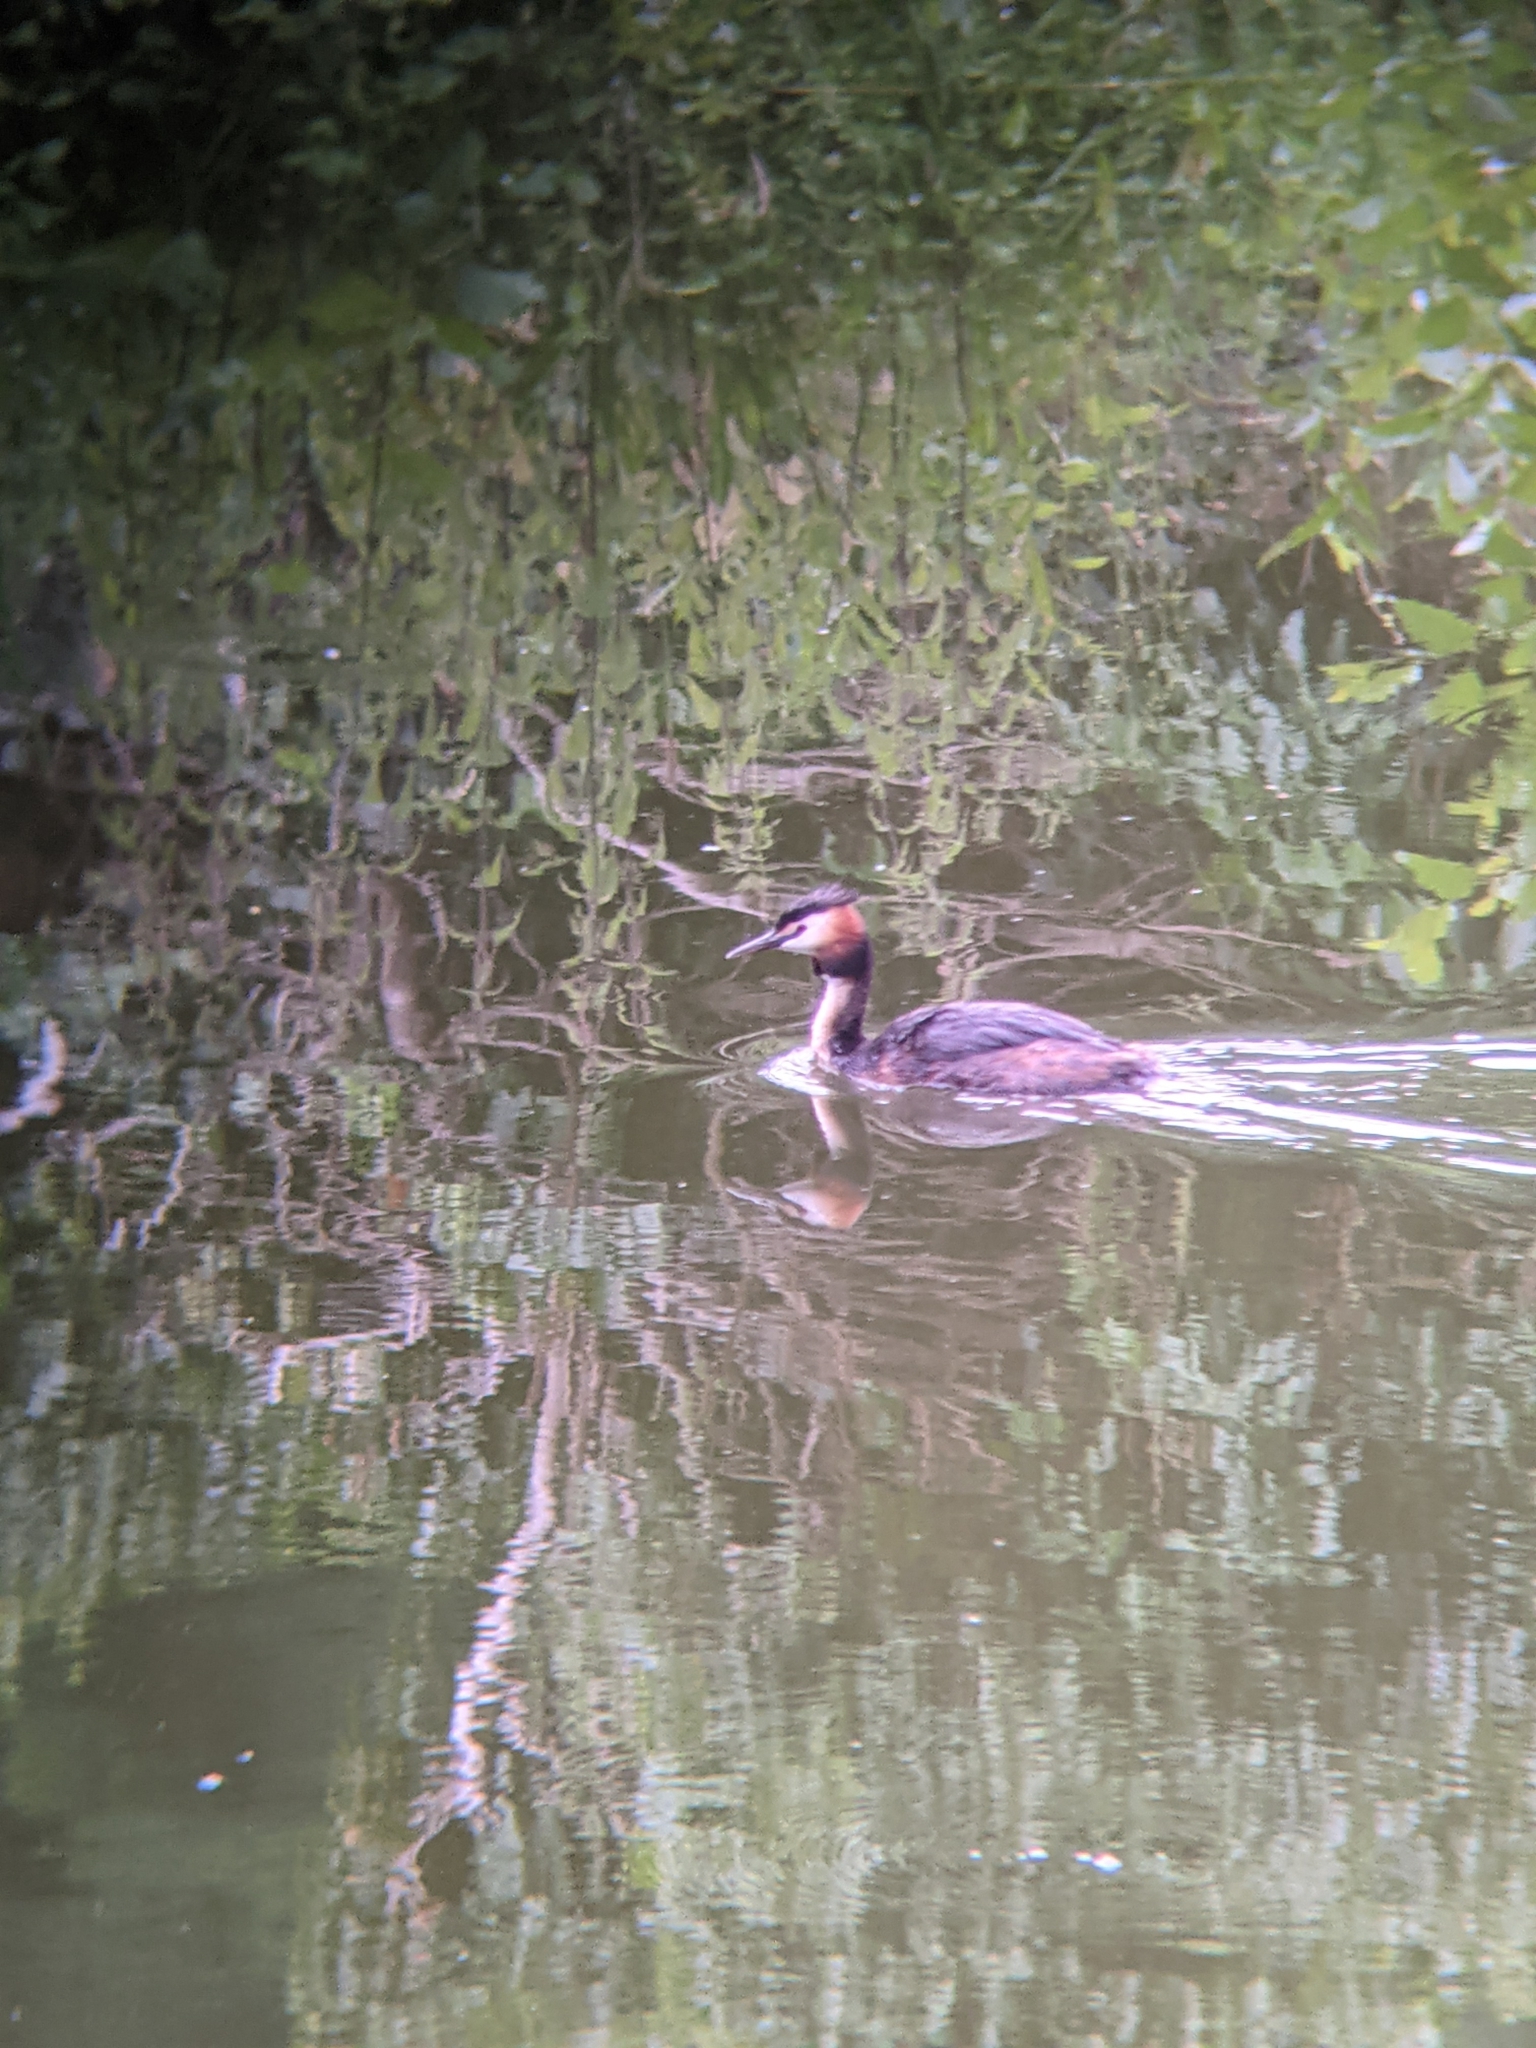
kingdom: Animalia
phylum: Chordata
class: Aves
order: Podicipediformes
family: Podicipedidae
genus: Podiceps
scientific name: Podiceps cristatus
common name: Great crested grebe
